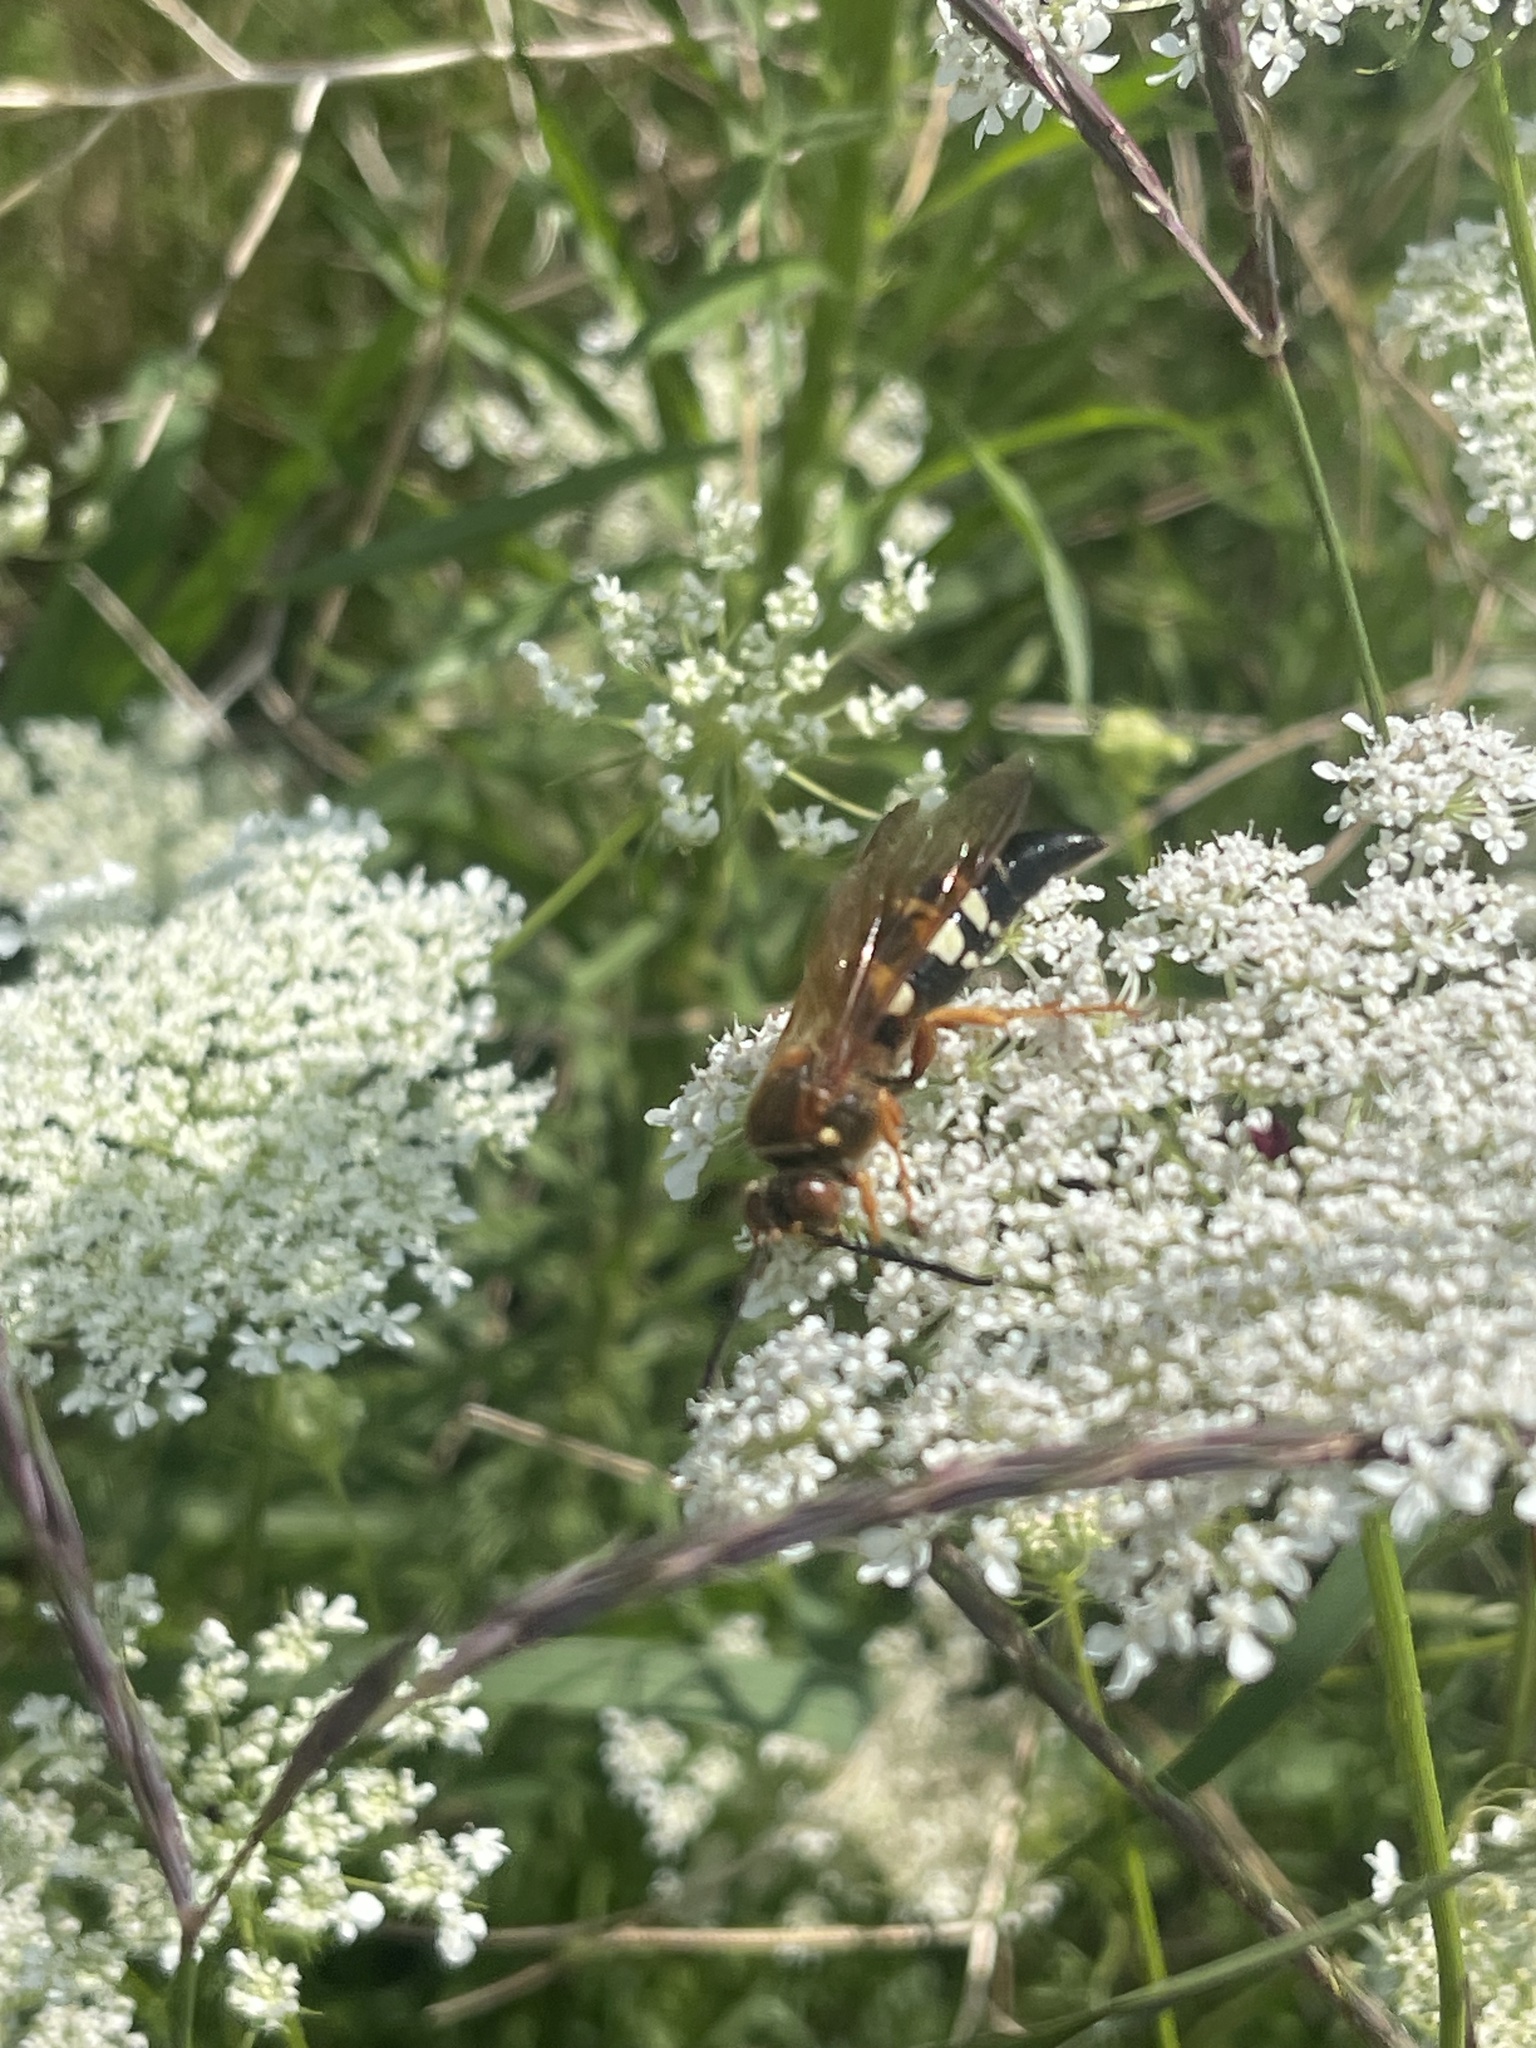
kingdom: Animalia
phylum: Arthropoda
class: Insecta
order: Hymenoptera
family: Crabronidae
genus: Sphecius
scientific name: Sphecius speciosus
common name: Cicada killer
